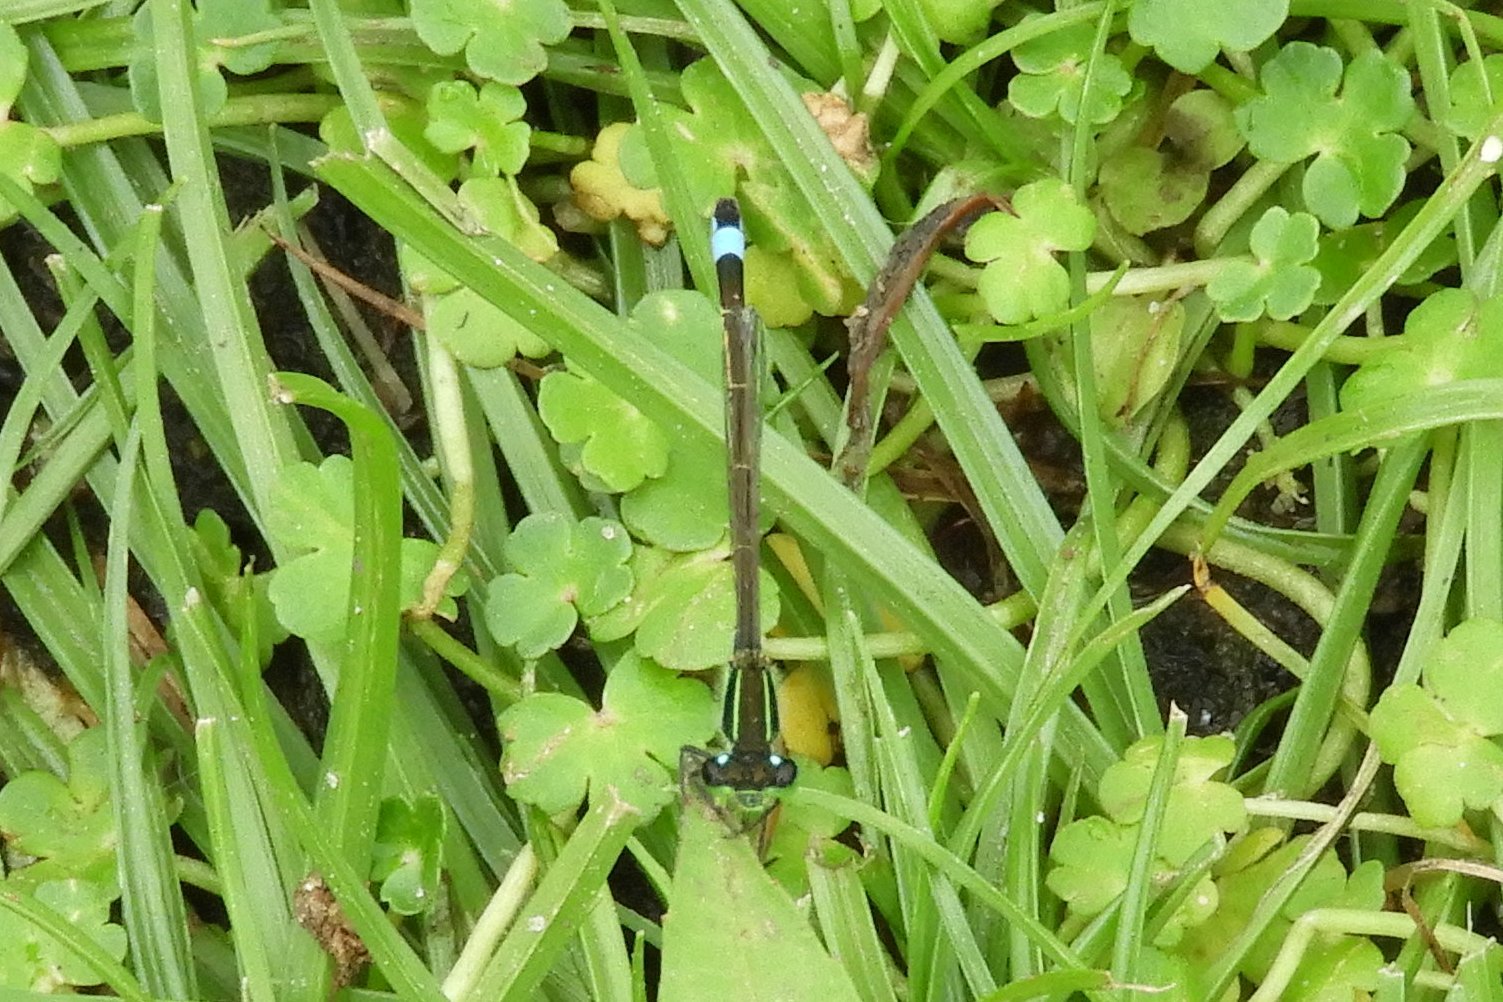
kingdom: Animalia
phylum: Arthropoda
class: Insecta
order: Odonata
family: Coenagrionidae
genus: Ischnura
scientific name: Ischnura ramburii
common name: Rambur's forktail
